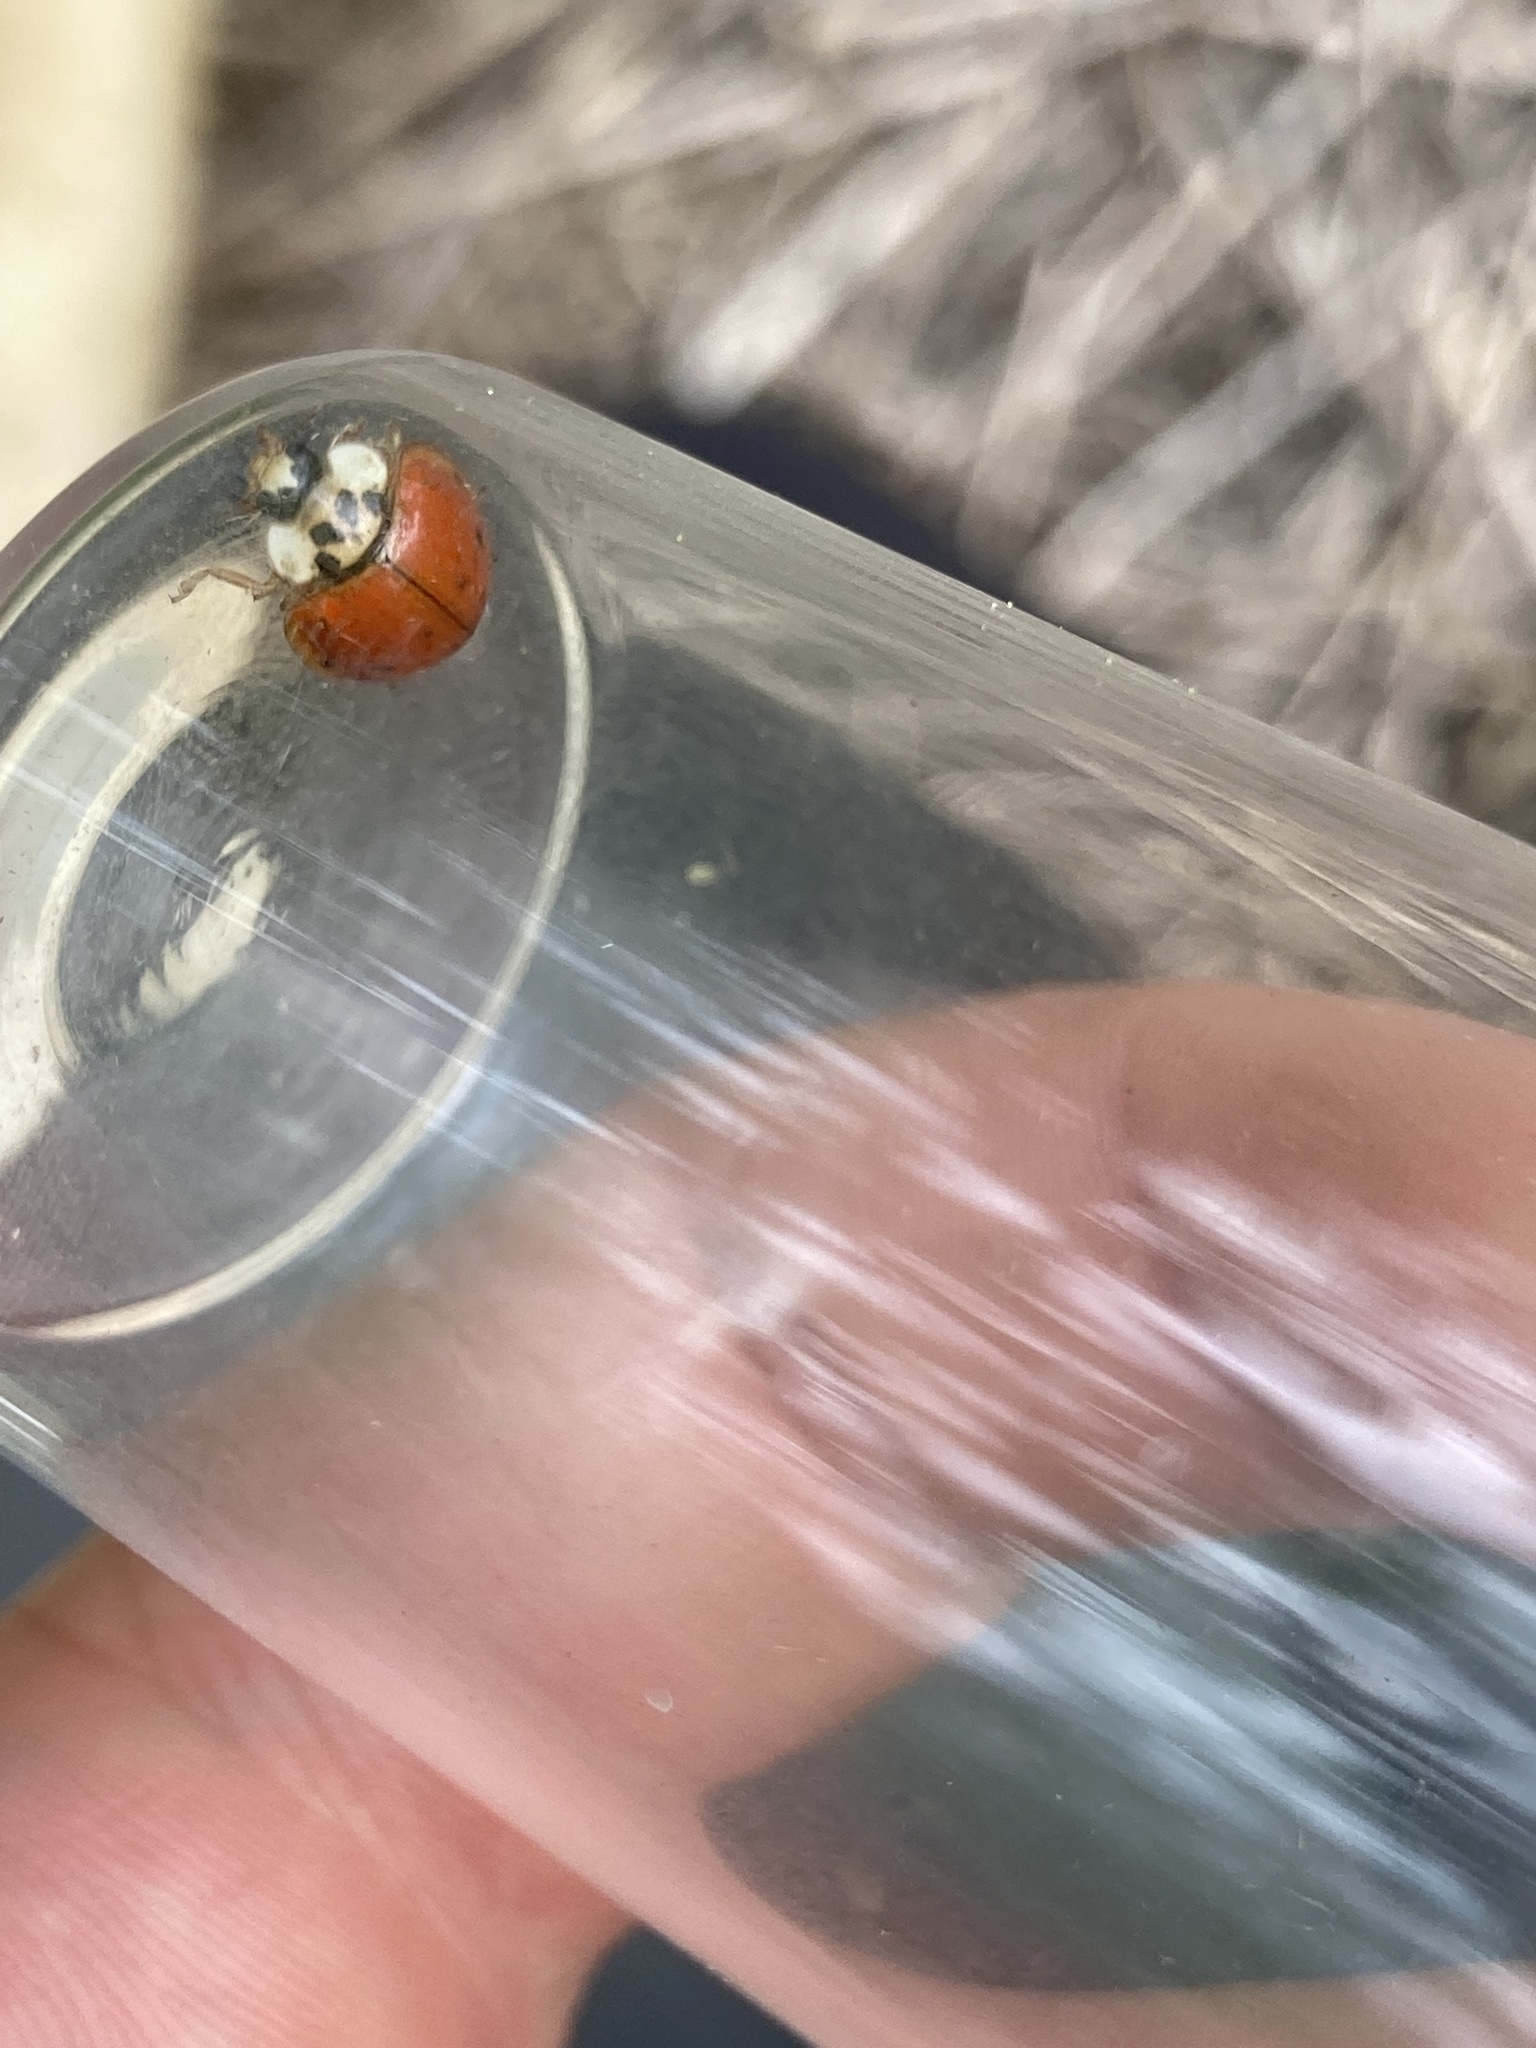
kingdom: Animalia
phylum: Arthropoda
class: Insecta
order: Coleoptera
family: Coccinellidae
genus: Harmonia
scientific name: Harmonia axyridis
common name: Harlequin ladybird
